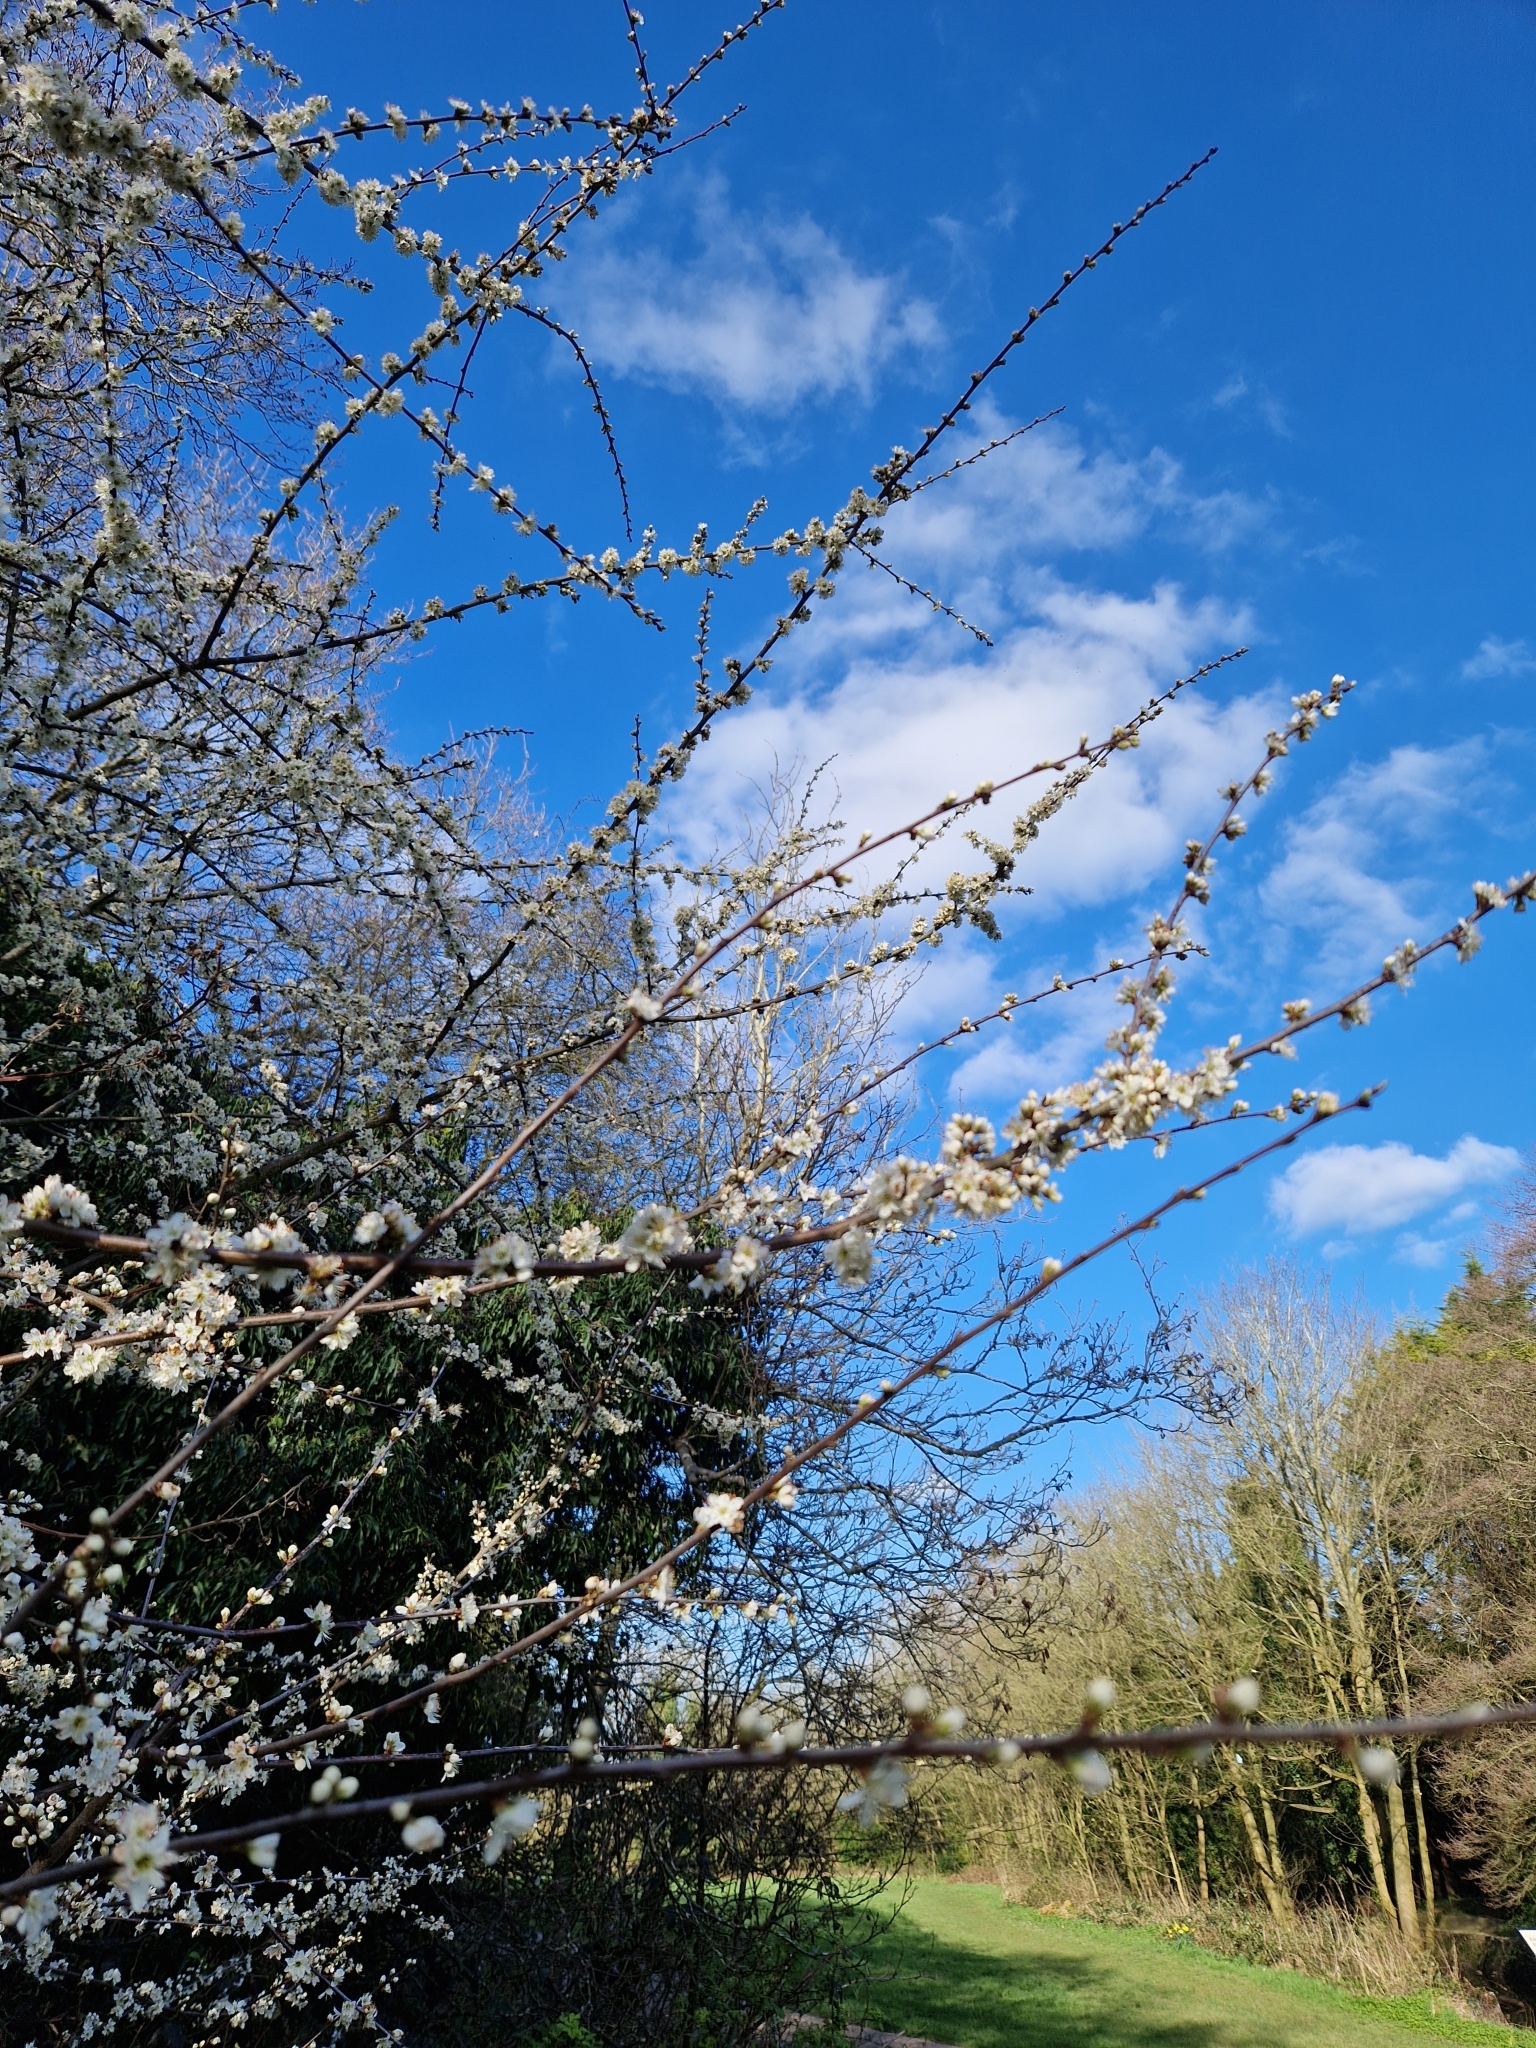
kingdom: Plantae
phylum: Tracheophyta
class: Magnoliopsida
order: Rosales
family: Rosaceae
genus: Prunus
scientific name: Prunus spinosa
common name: Blackthorn
